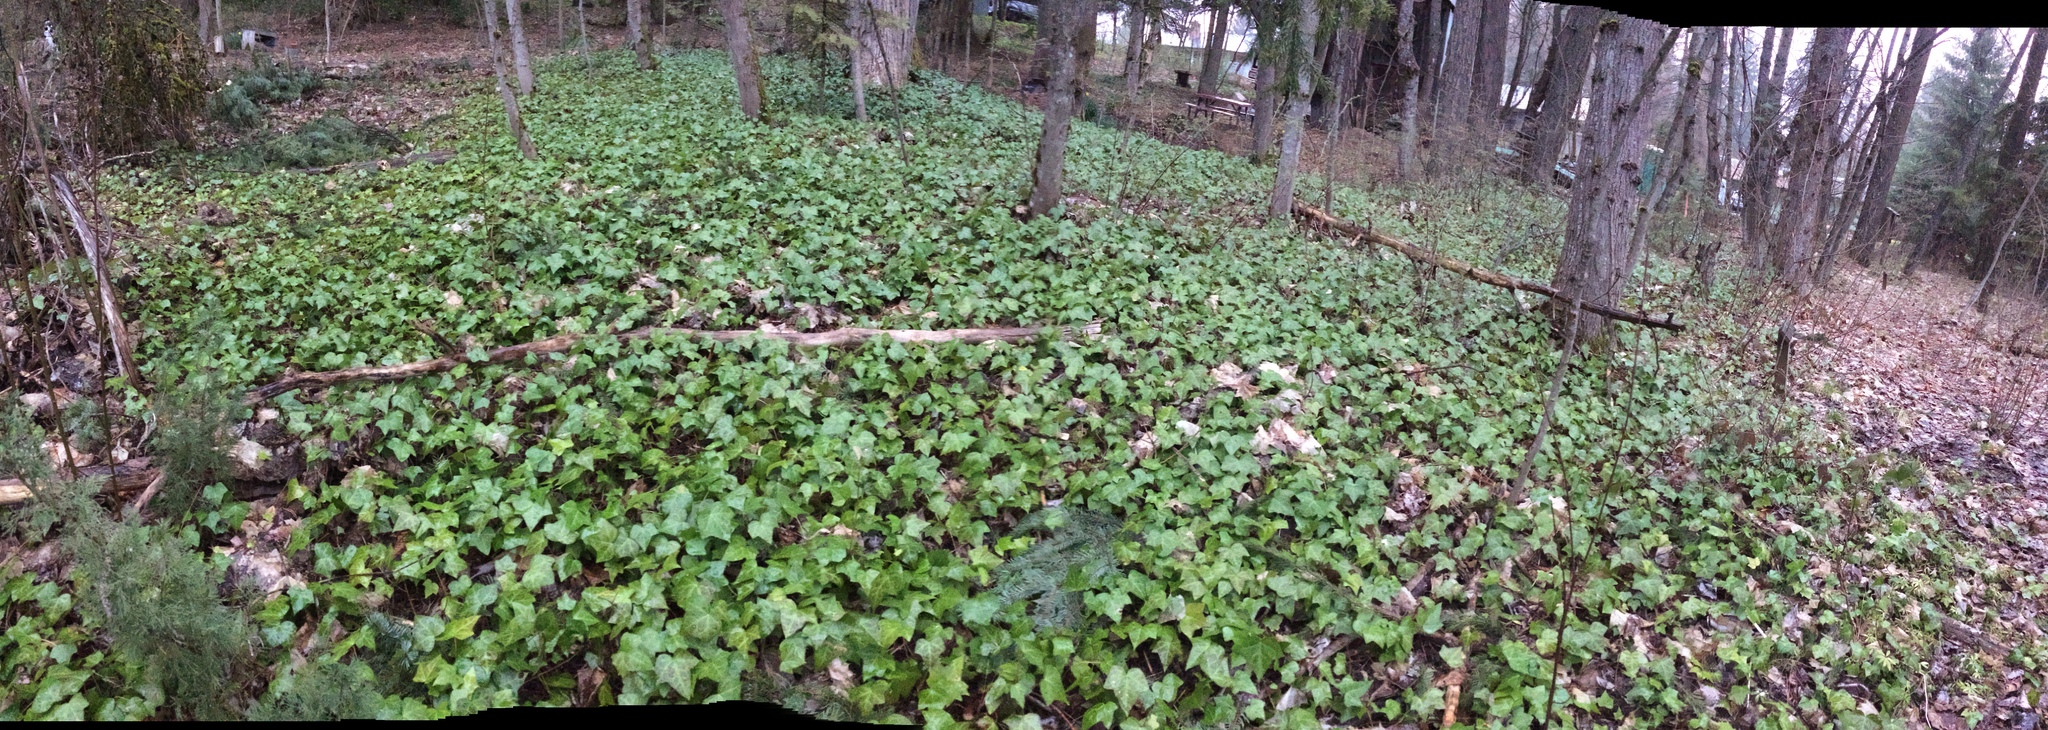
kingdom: Plantae
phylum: Tracheophyta
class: Magnoliopsida
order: Apiales
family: Araliaceae
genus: Hedera
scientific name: Hedera helix
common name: Ivy
